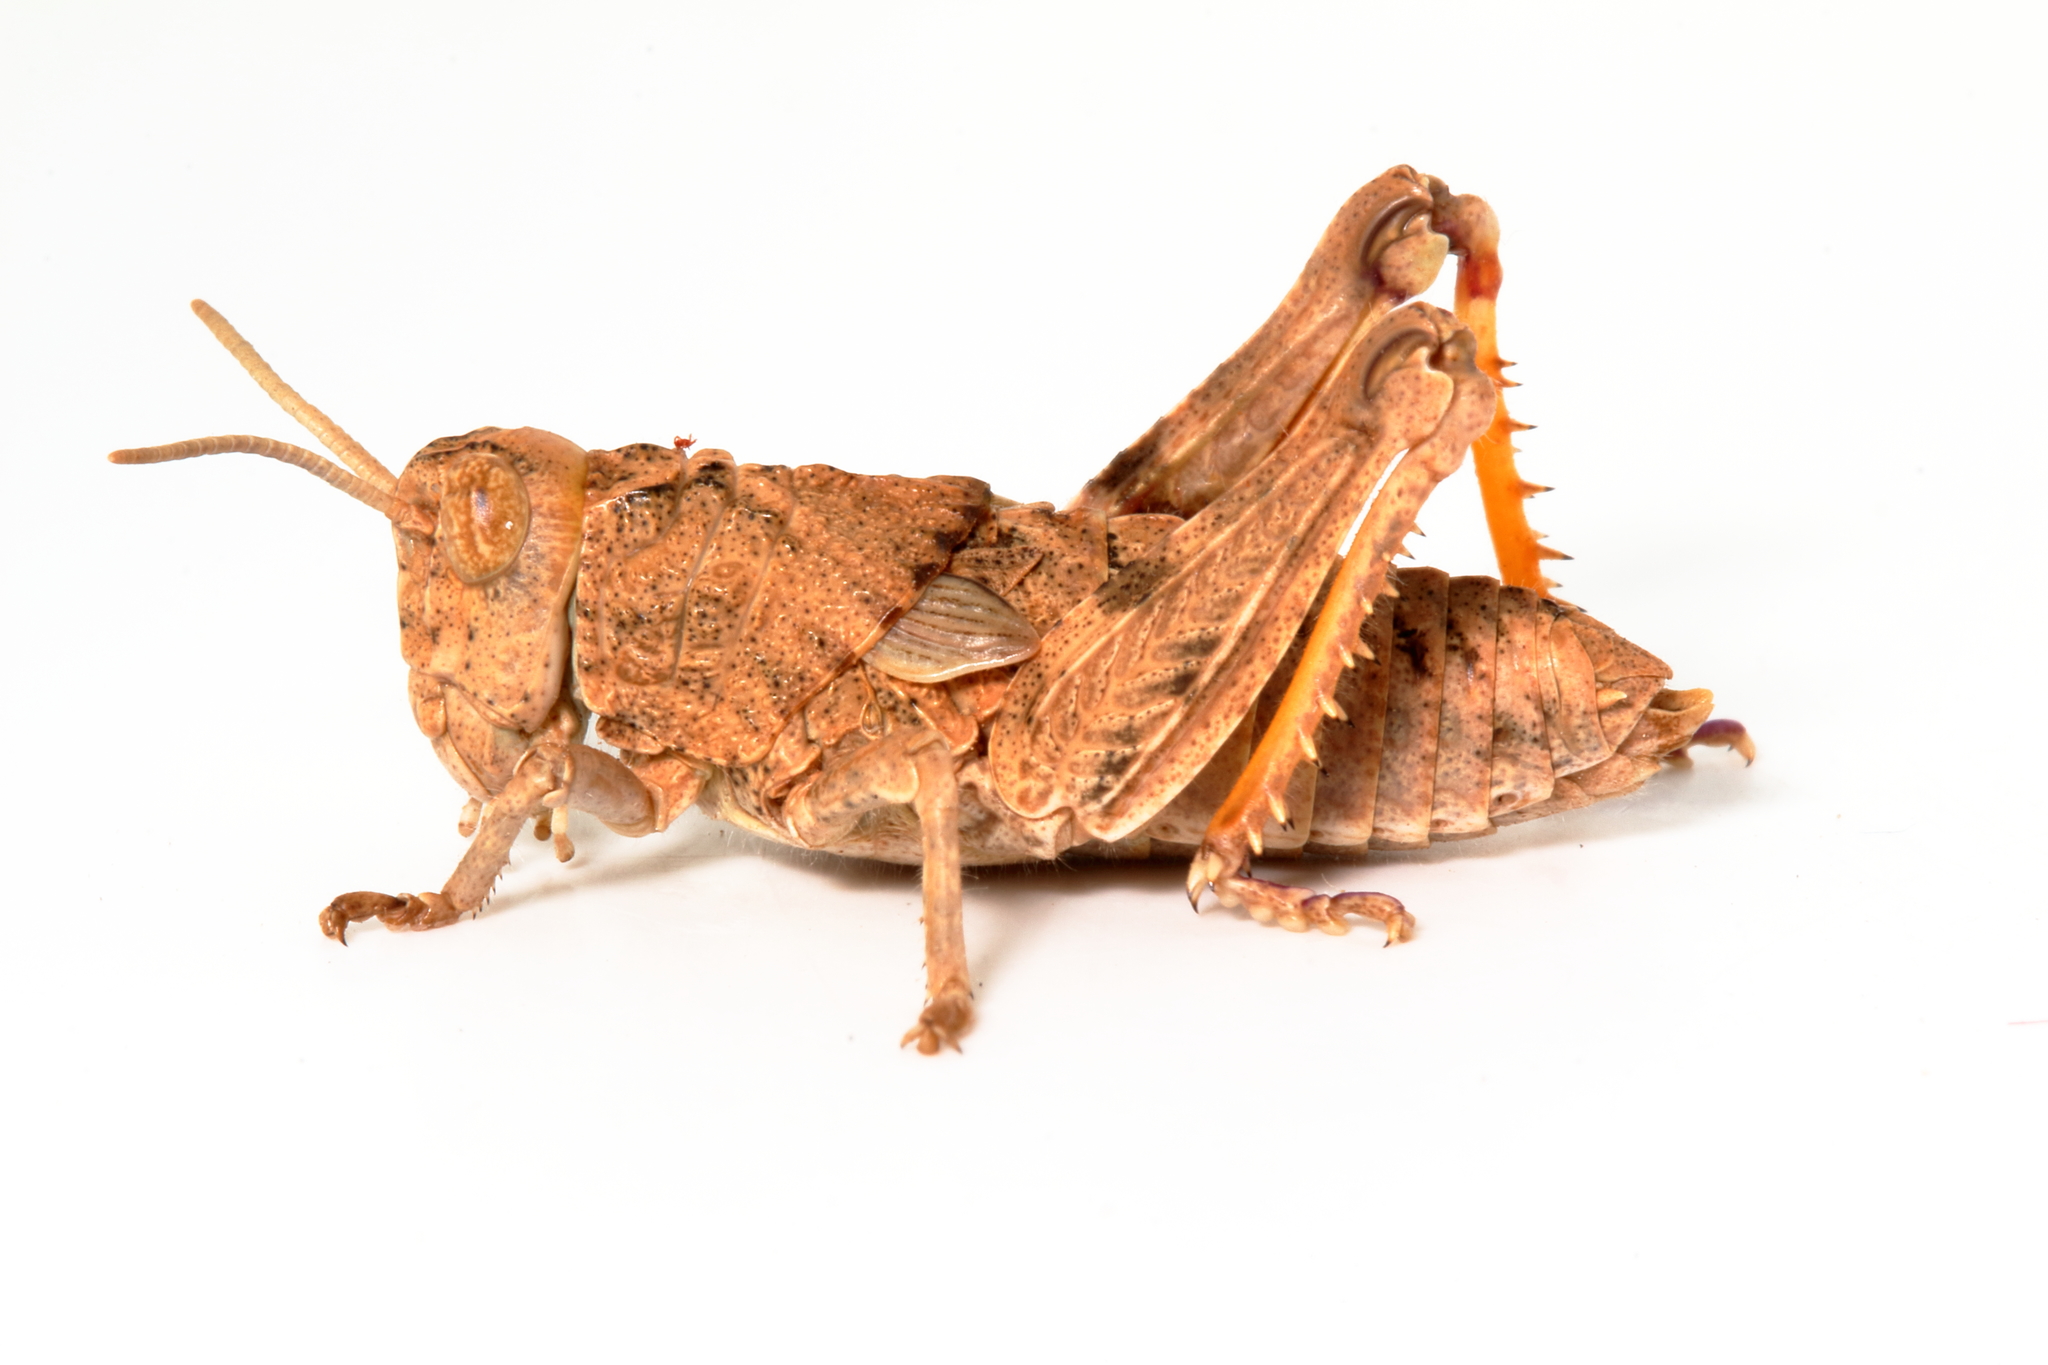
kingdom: Animalia
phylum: Arthropoda
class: Insecta
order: Orthoptera
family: Acrididae
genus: Cratilopus
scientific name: Cratilopus
